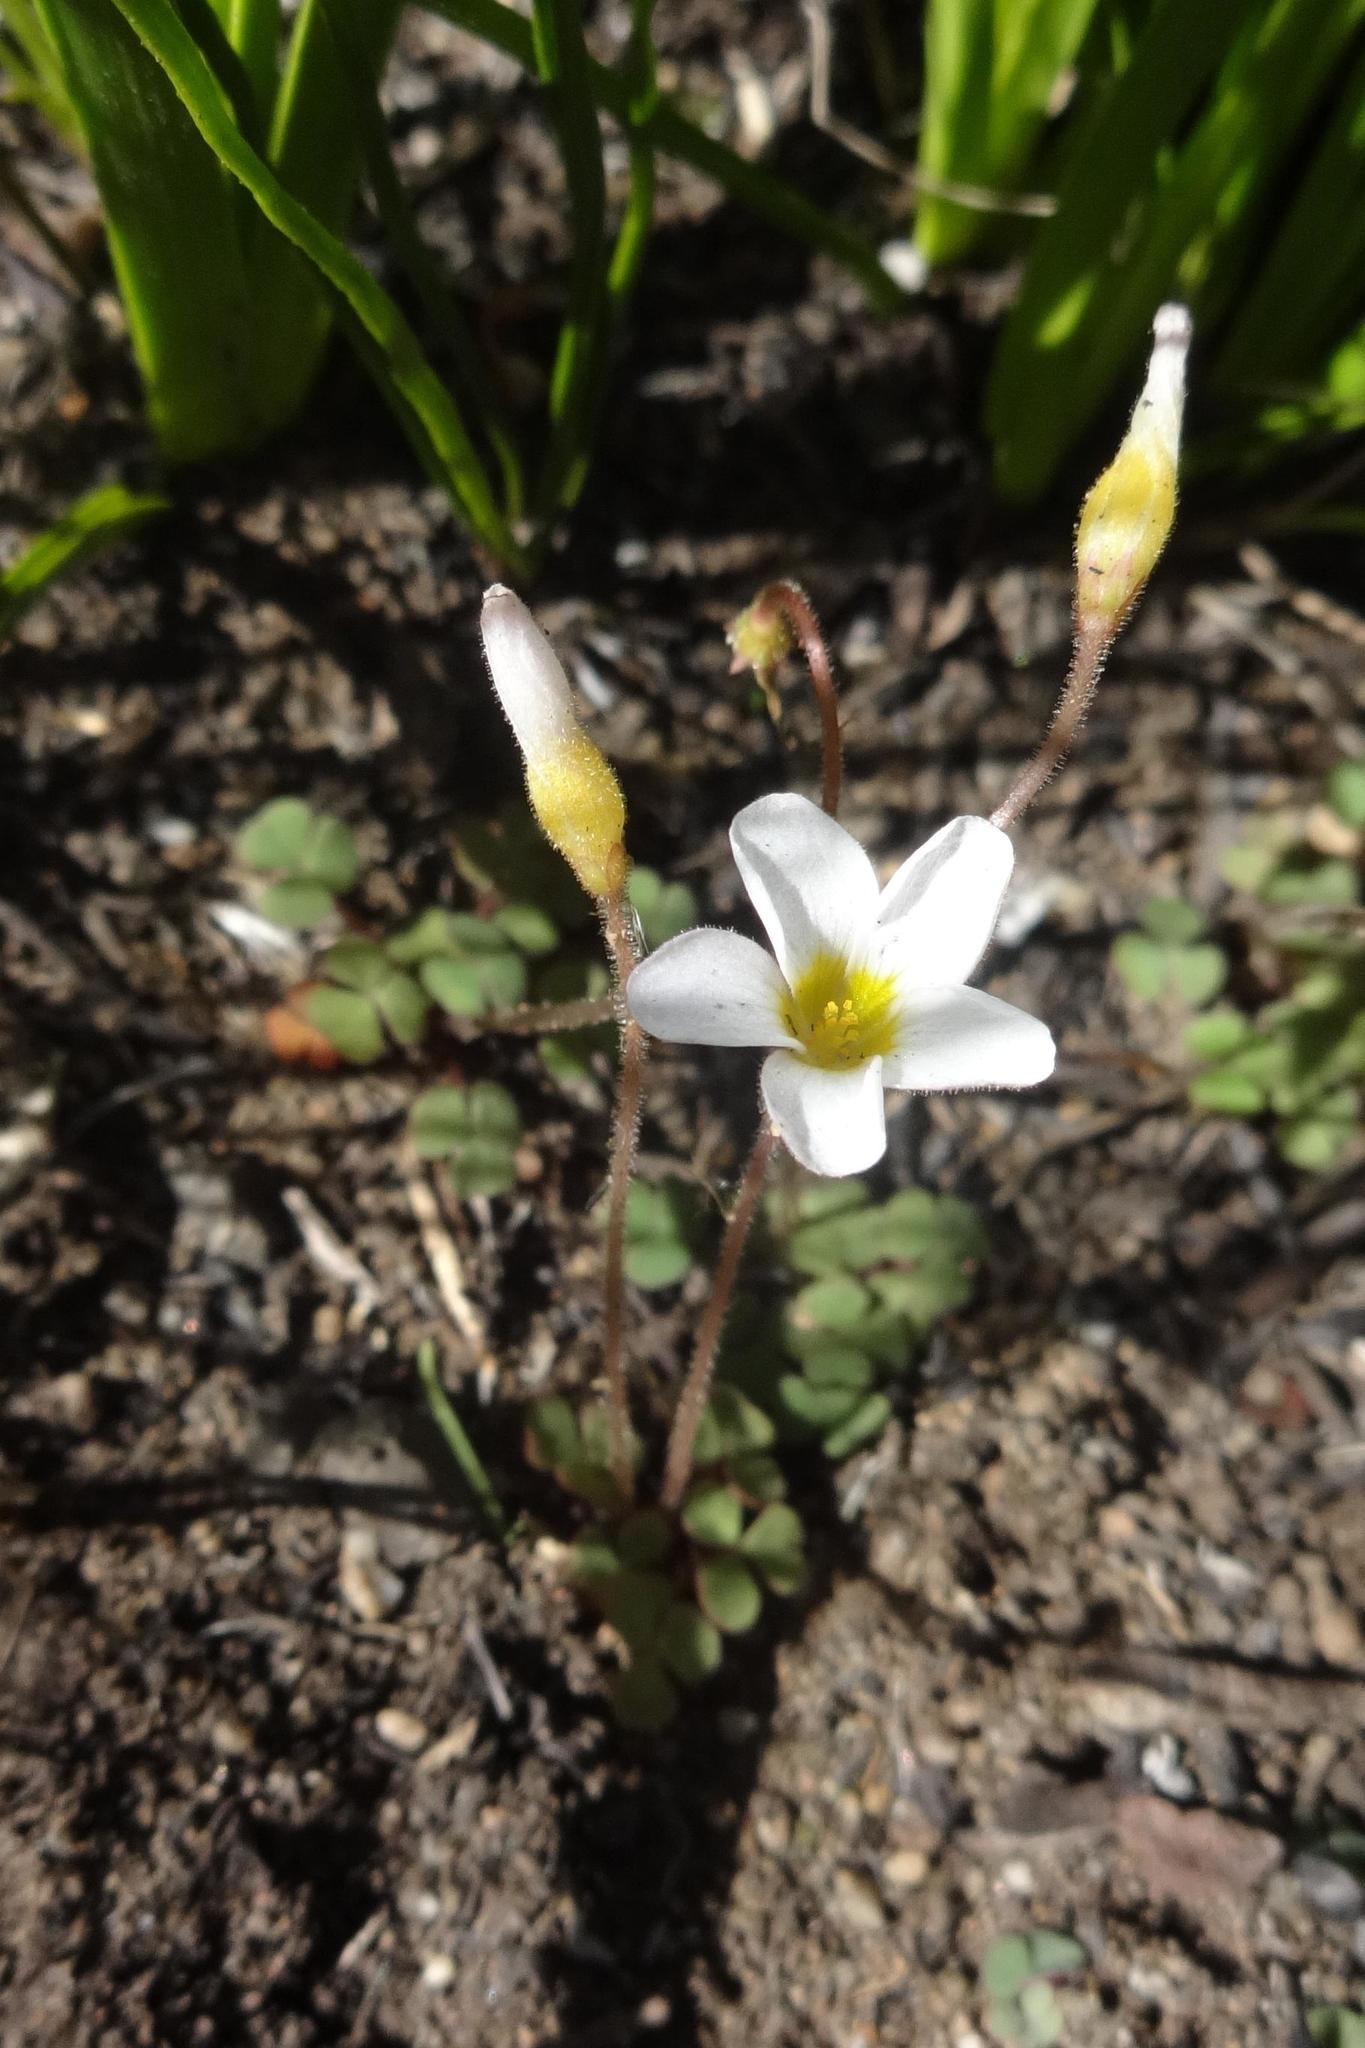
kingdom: Plantae
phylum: Tracheophyta
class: Magnoliopsida
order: Oxalidales
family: Oxalidaceae
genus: Oxalis
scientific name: Oxalis punctata
